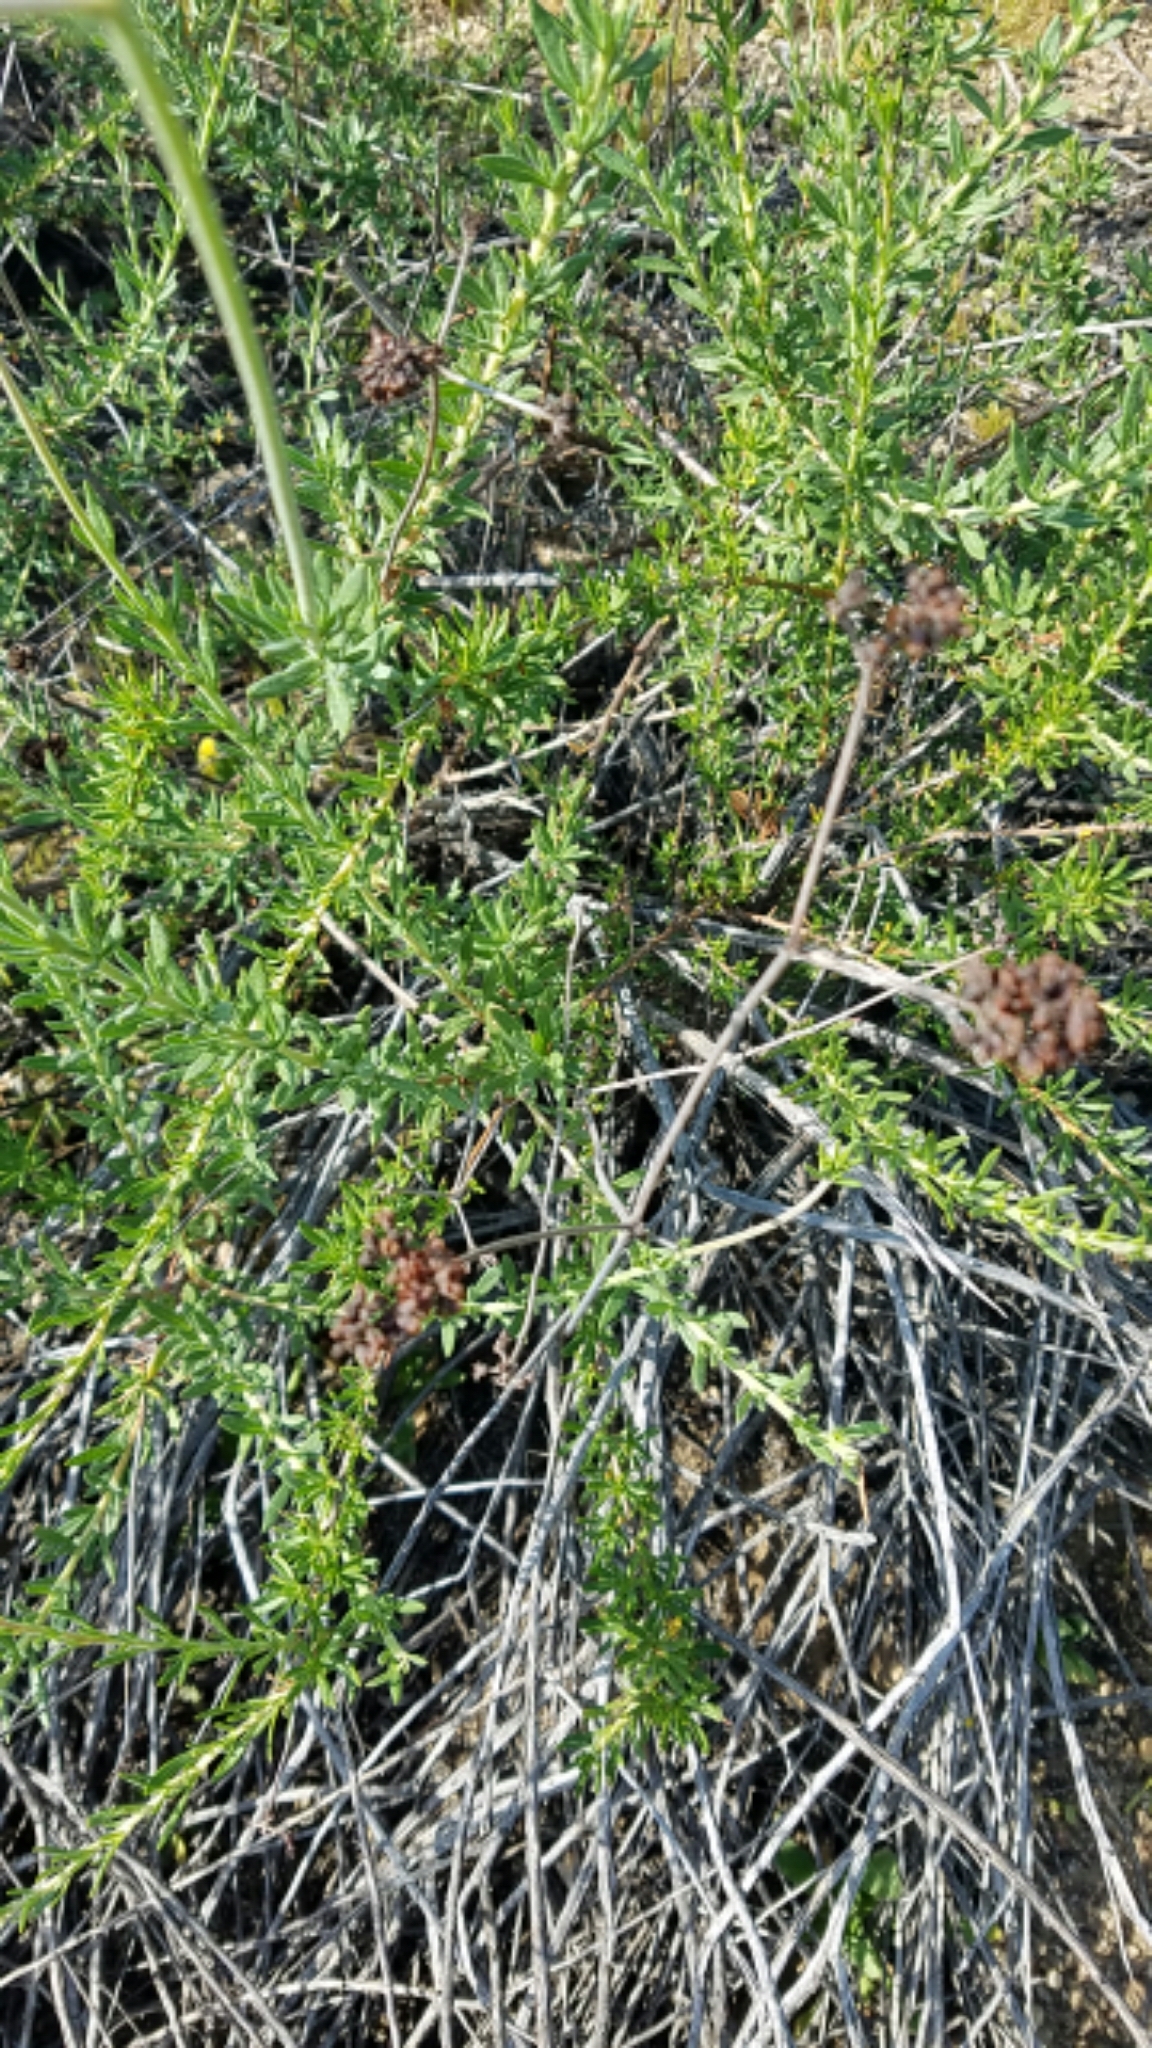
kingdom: Plantae
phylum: Tracheophyta
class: Magnoliopsida
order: Caryophyllales
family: Polygonaceae
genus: Eriogonum
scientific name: Eriogonum fasciculatum
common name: California wild buckwheat
